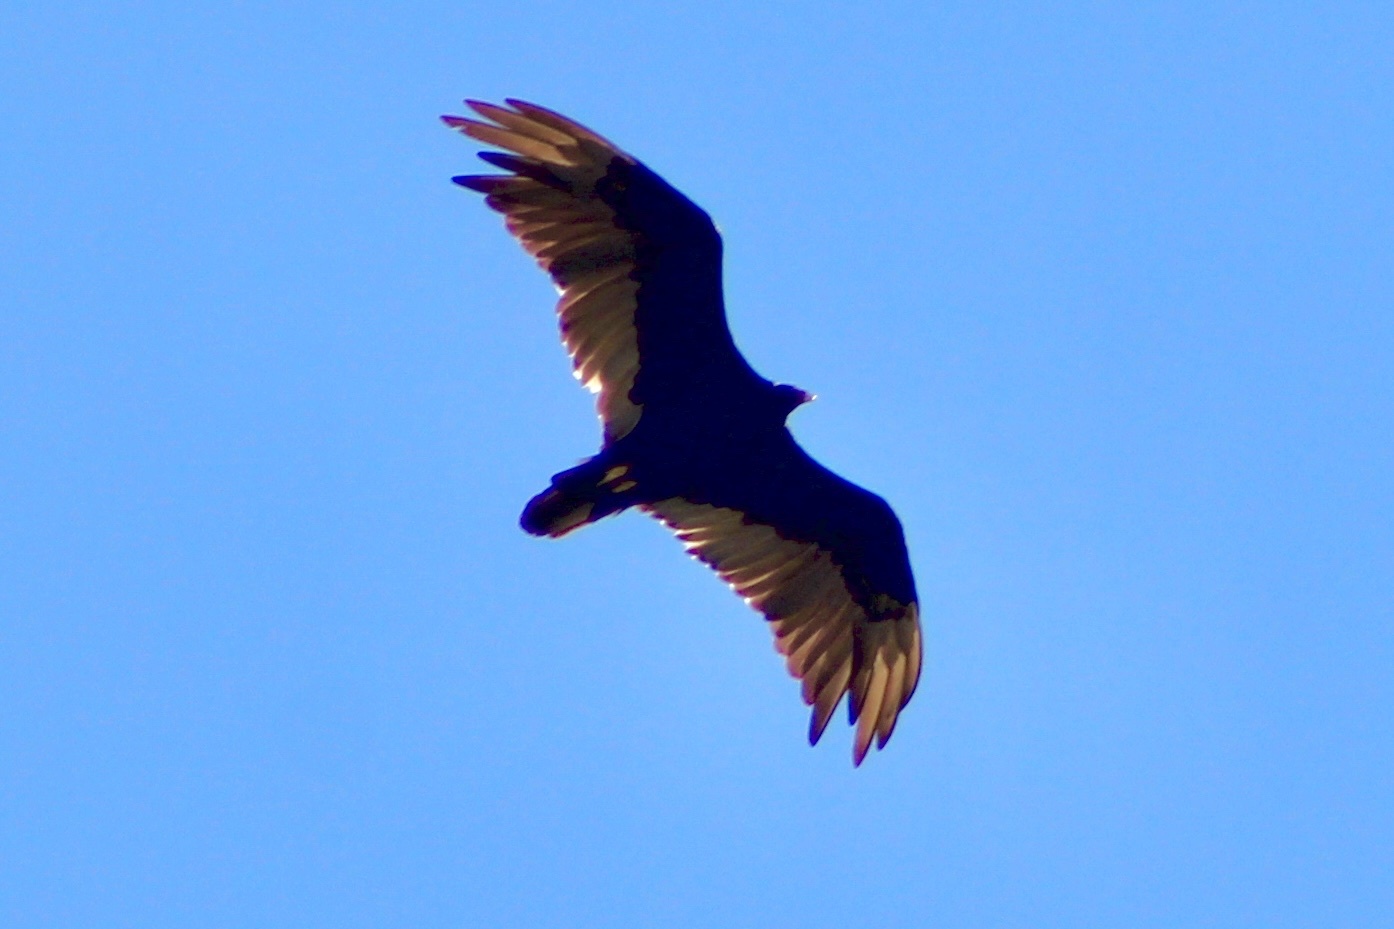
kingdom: Animalia
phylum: Chordata
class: Aves
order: Accipitriformes
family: Cathartidae
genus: Cathartes
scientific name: Cathartes aura
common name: Turkey vulture
